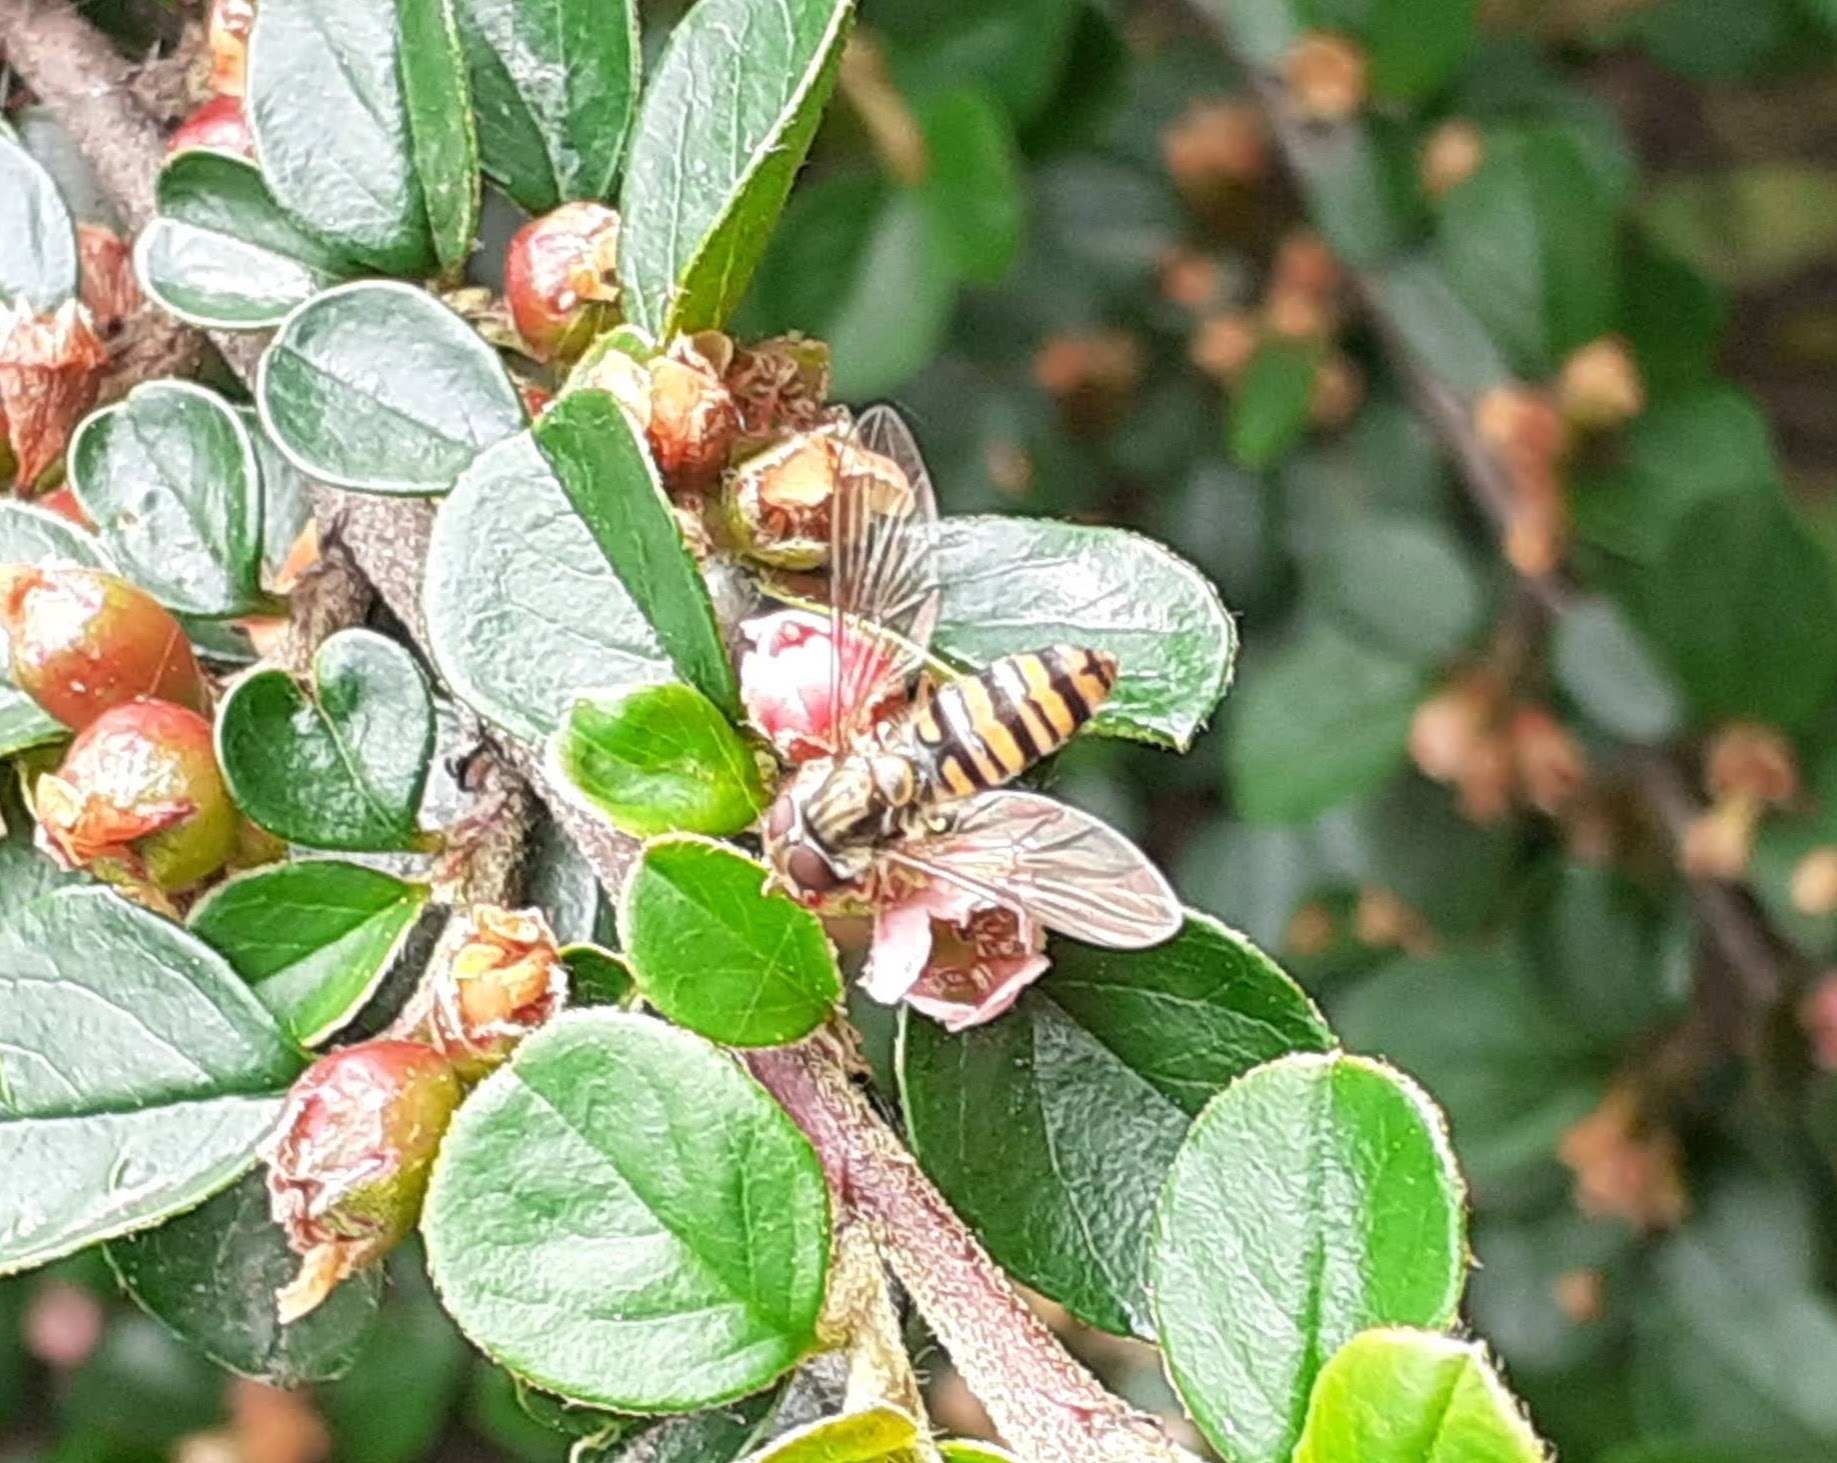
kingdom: Animalia
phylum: Arthropoda
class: Insecta
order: Diptera
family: Syrphidae
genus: Episyrphus
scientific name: Episyrphus balteatus
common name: Marmalade hoverfly
